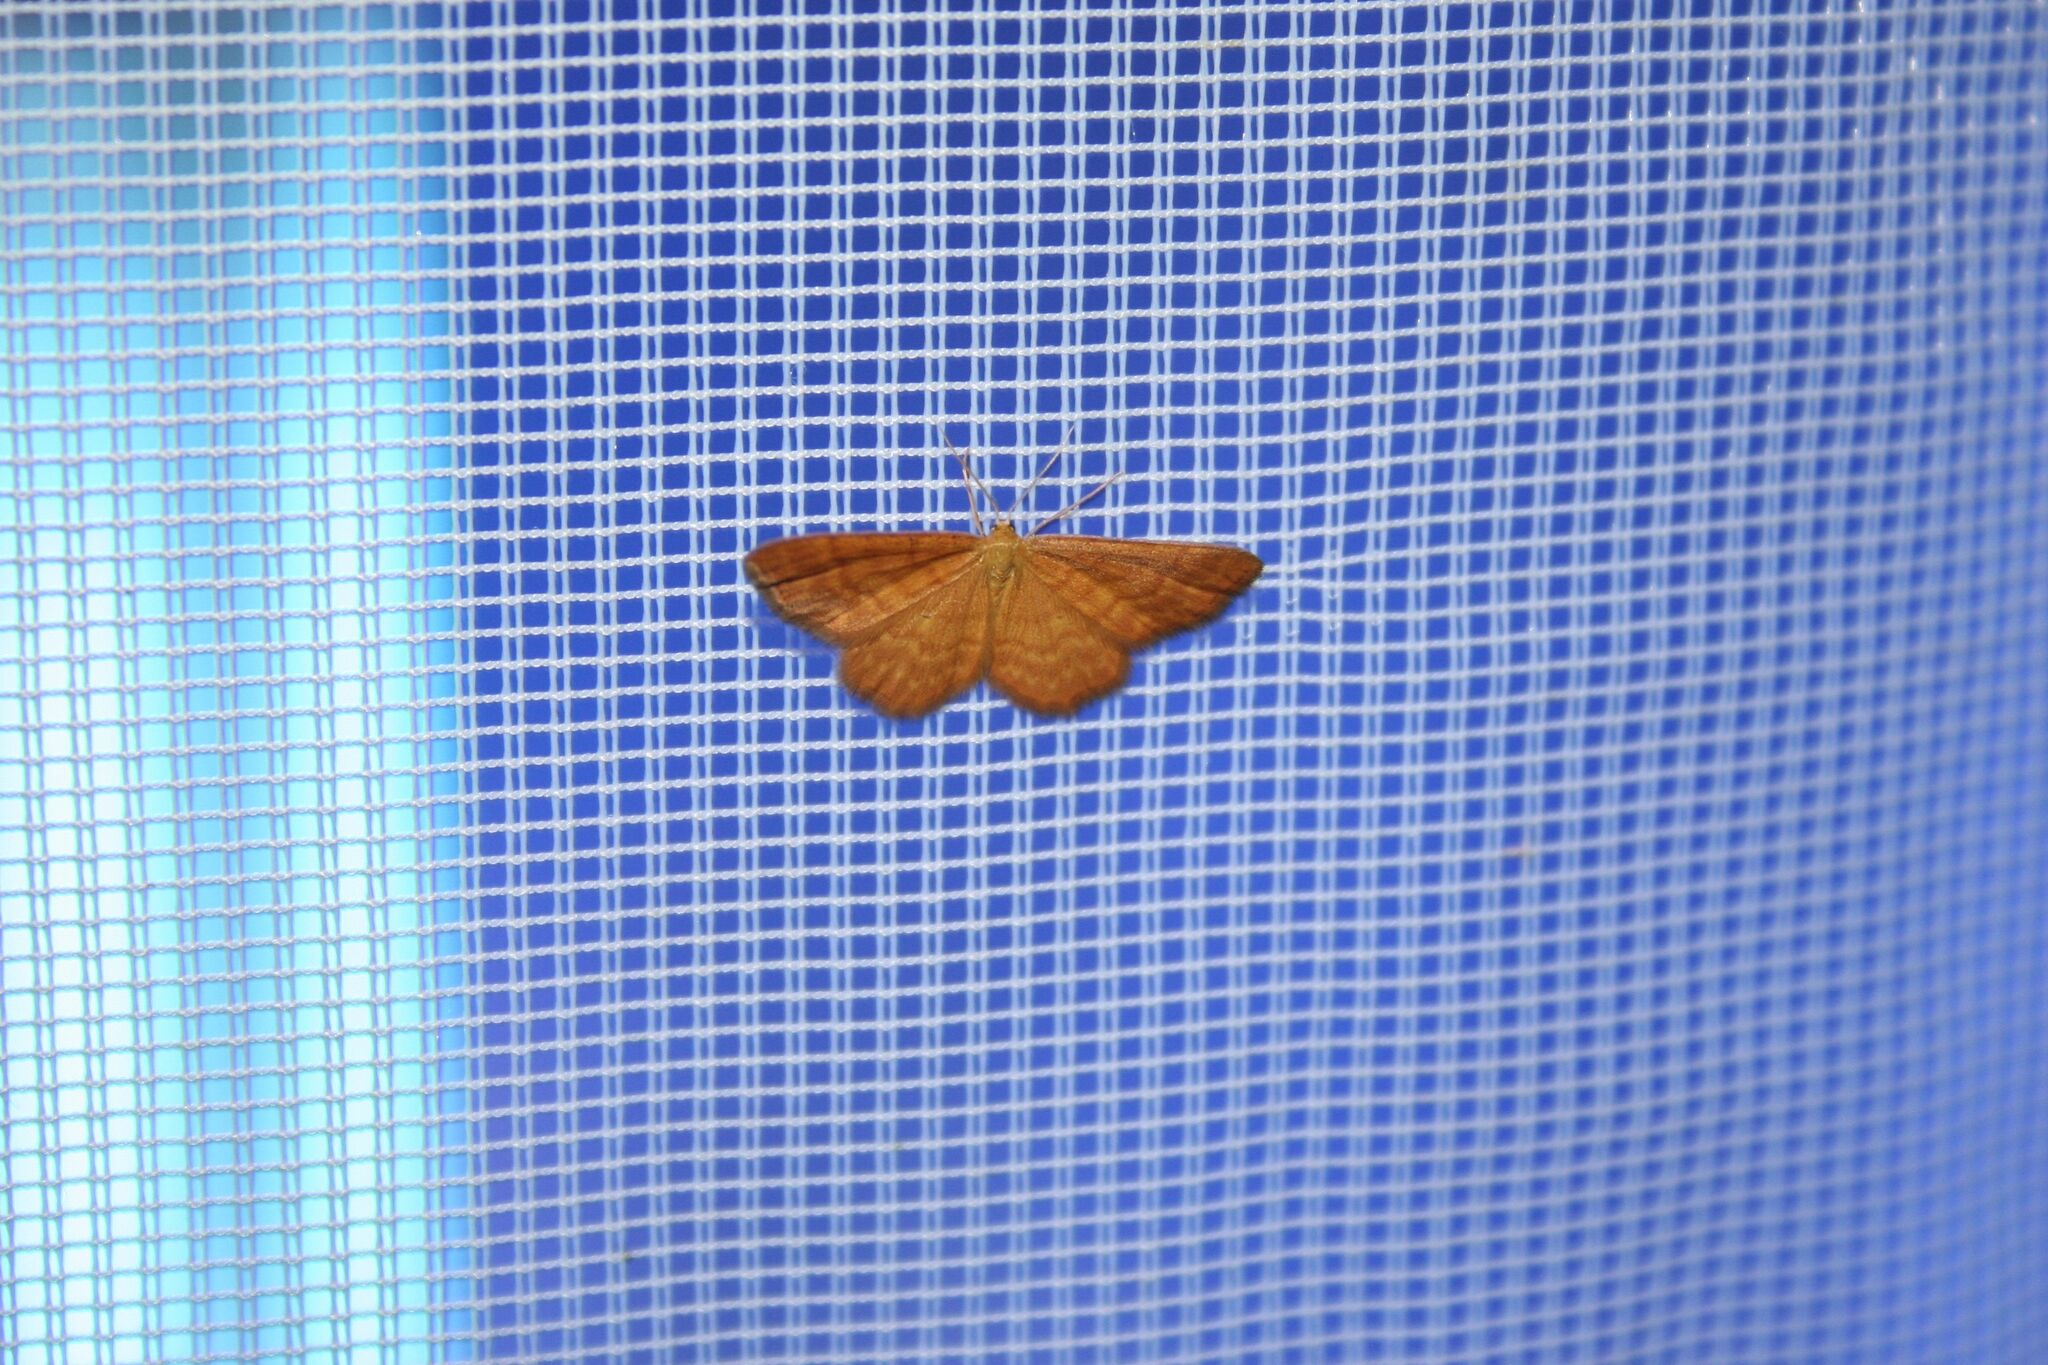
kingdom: Animalia
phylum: Arthropoda
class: Insecta
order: Lepidoptera
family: Geometridae
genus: Idaea
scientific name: Idaea serpentata
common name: Ochraceous wave
